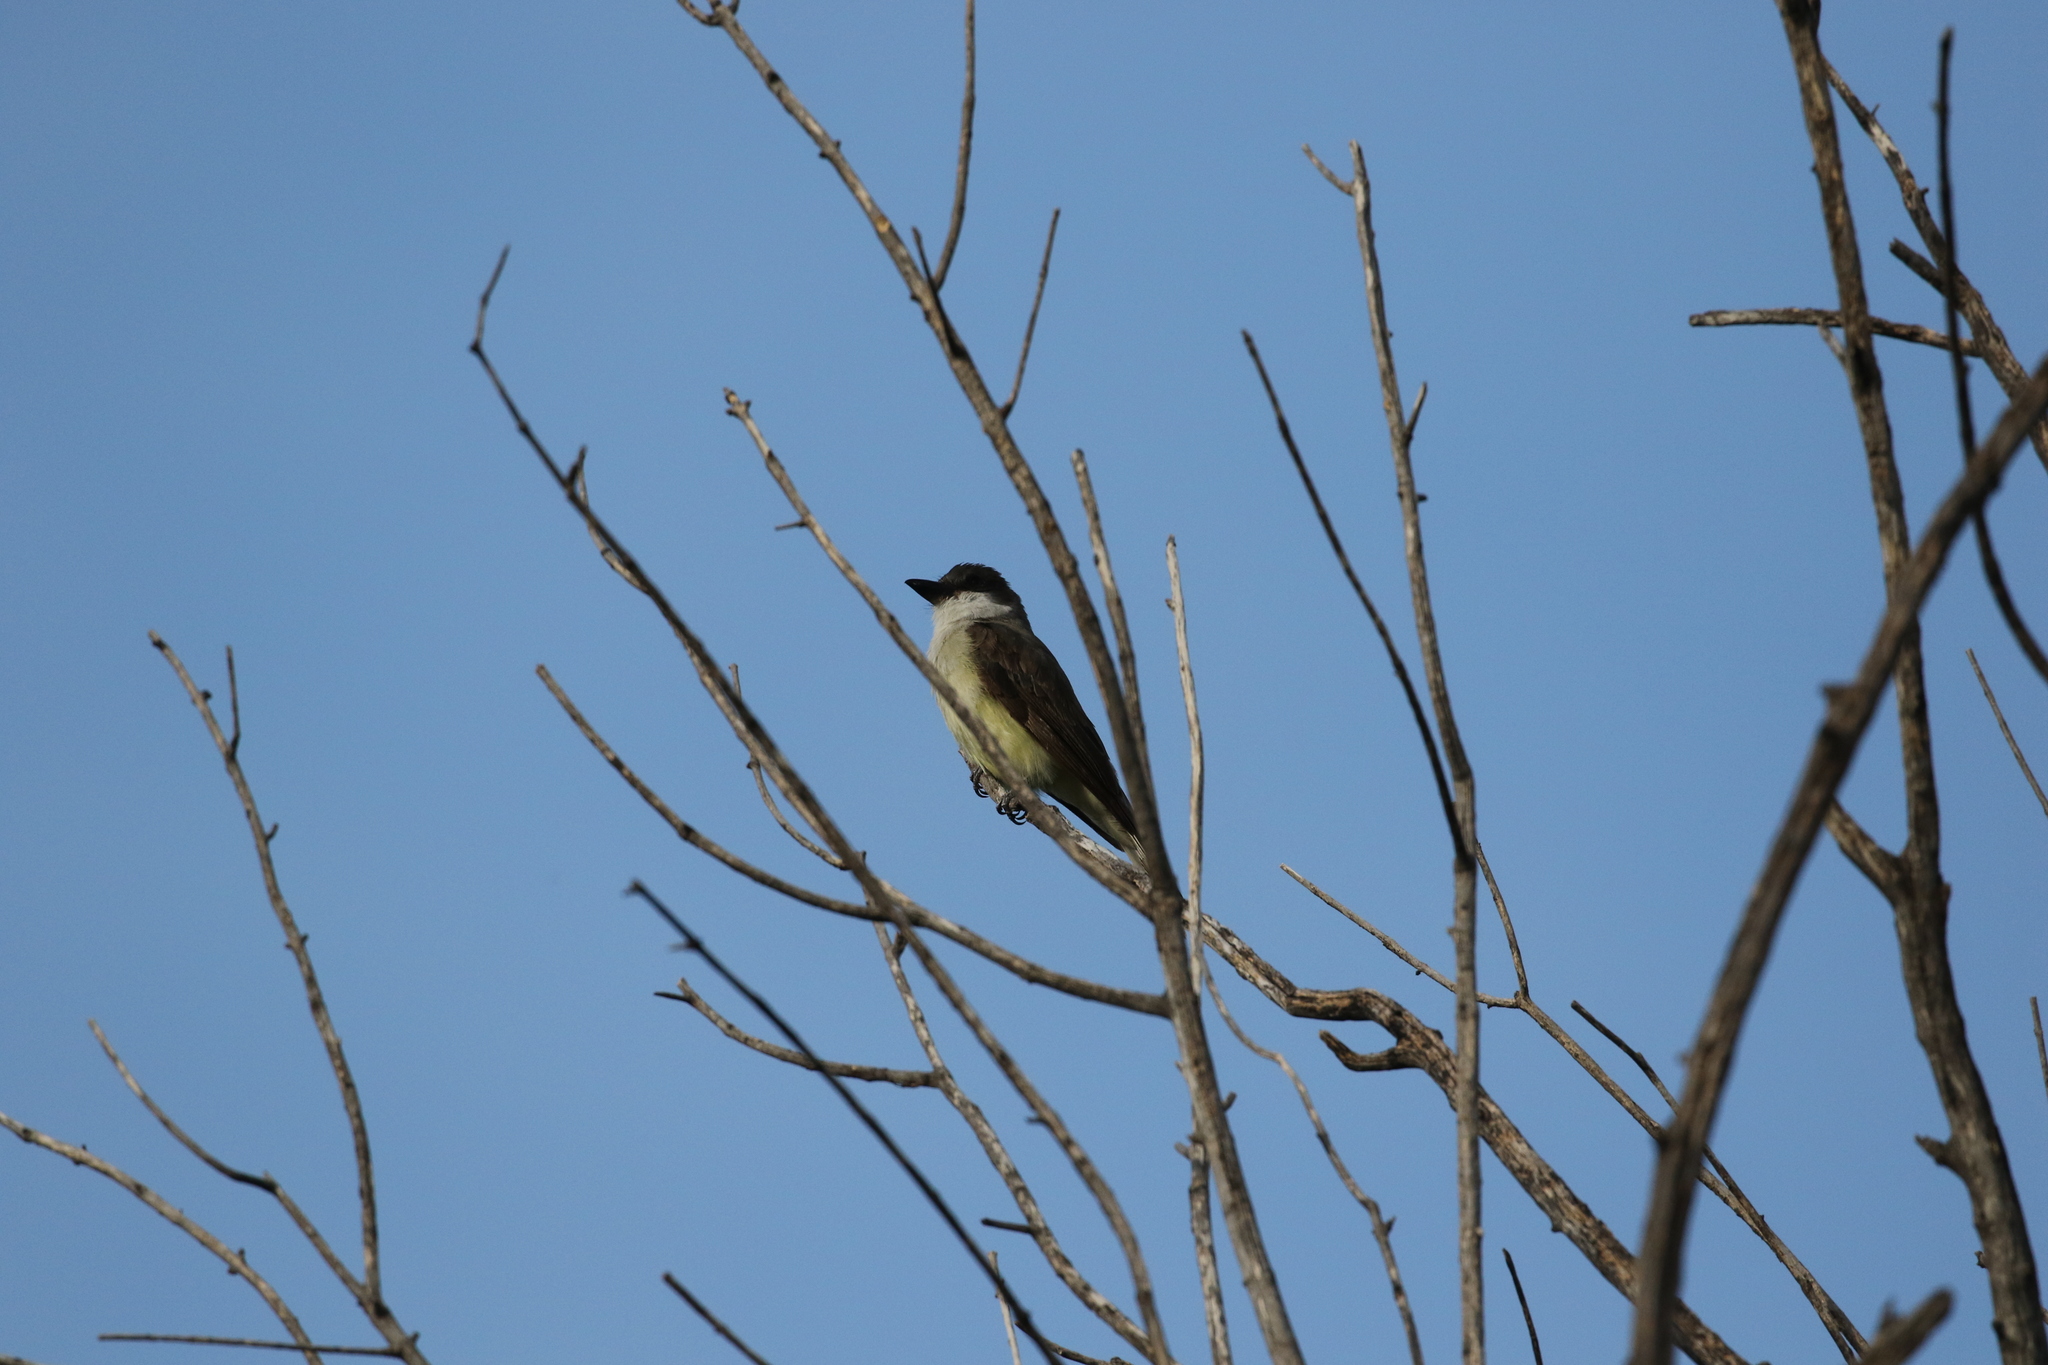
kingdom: Animalia
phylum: Chordata
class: Aves
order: Passeriformes
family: Tyrannidae
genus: Tyrannus
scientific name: Tyrannus crassirostris
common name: Thick-billed kingbird
